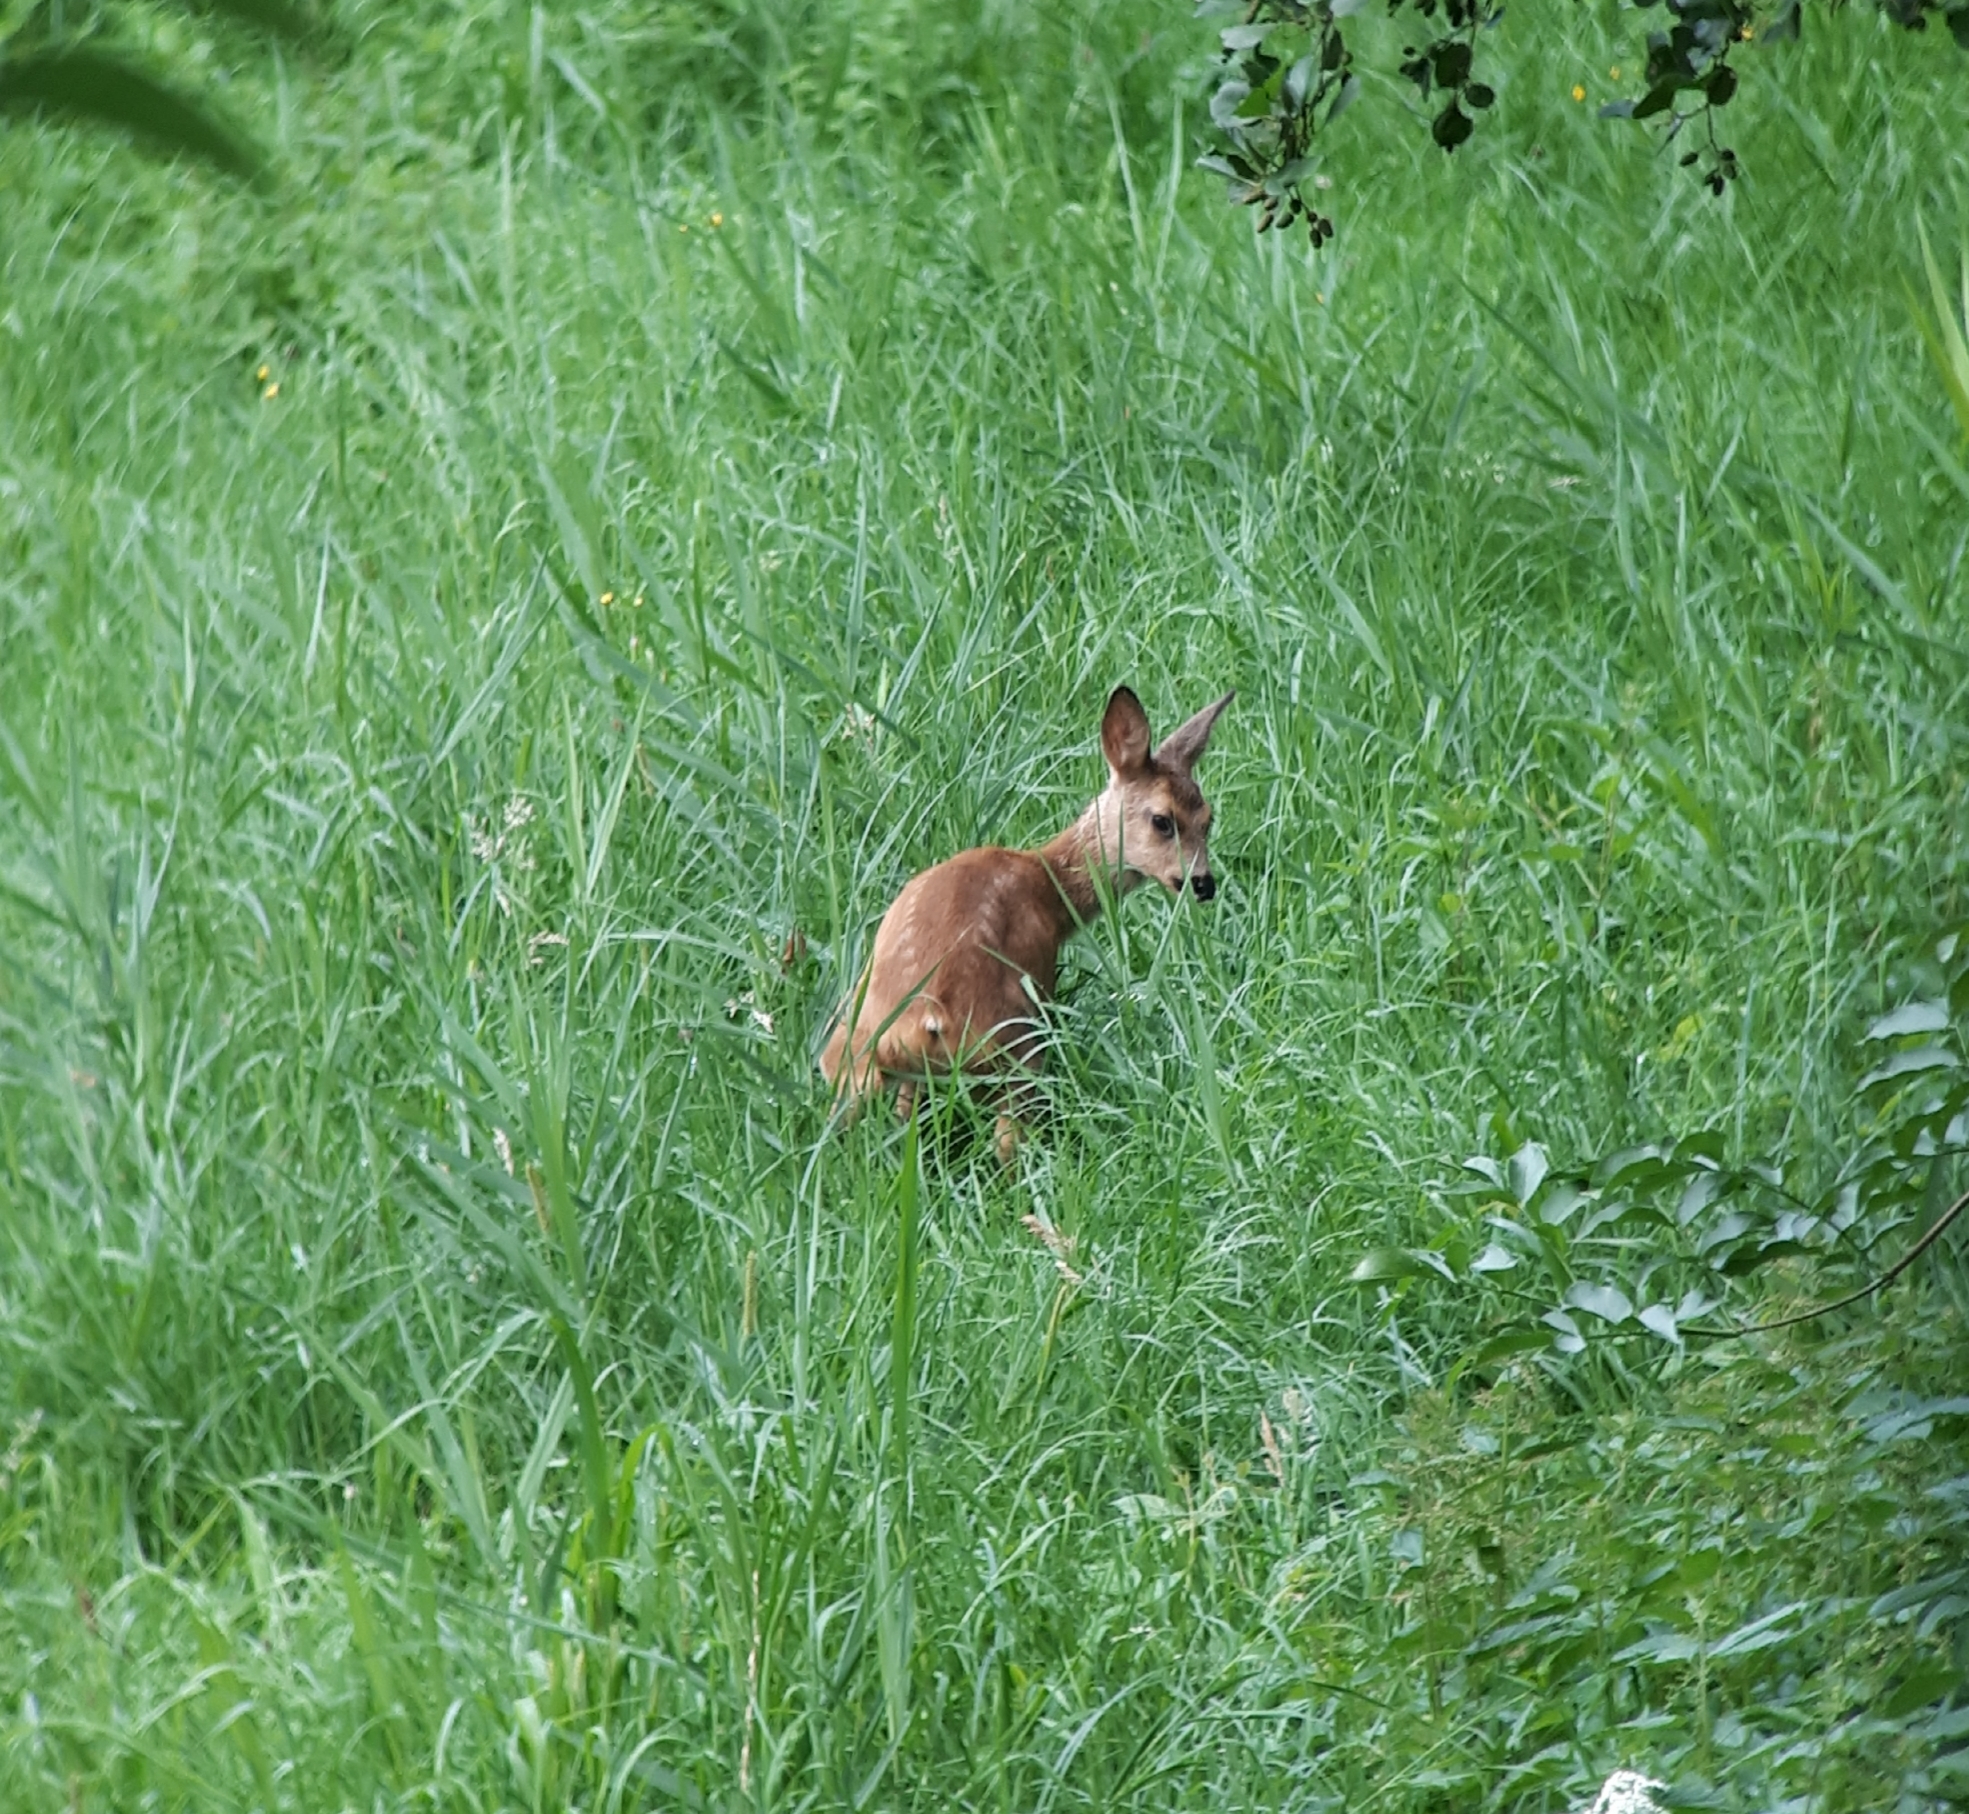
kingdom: Animalia
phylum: Chordata
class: Mammalia
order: Artiodactyla
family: Cervidae
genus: Capreolus
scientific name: Capreolus capreolus
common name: Western roe deer
